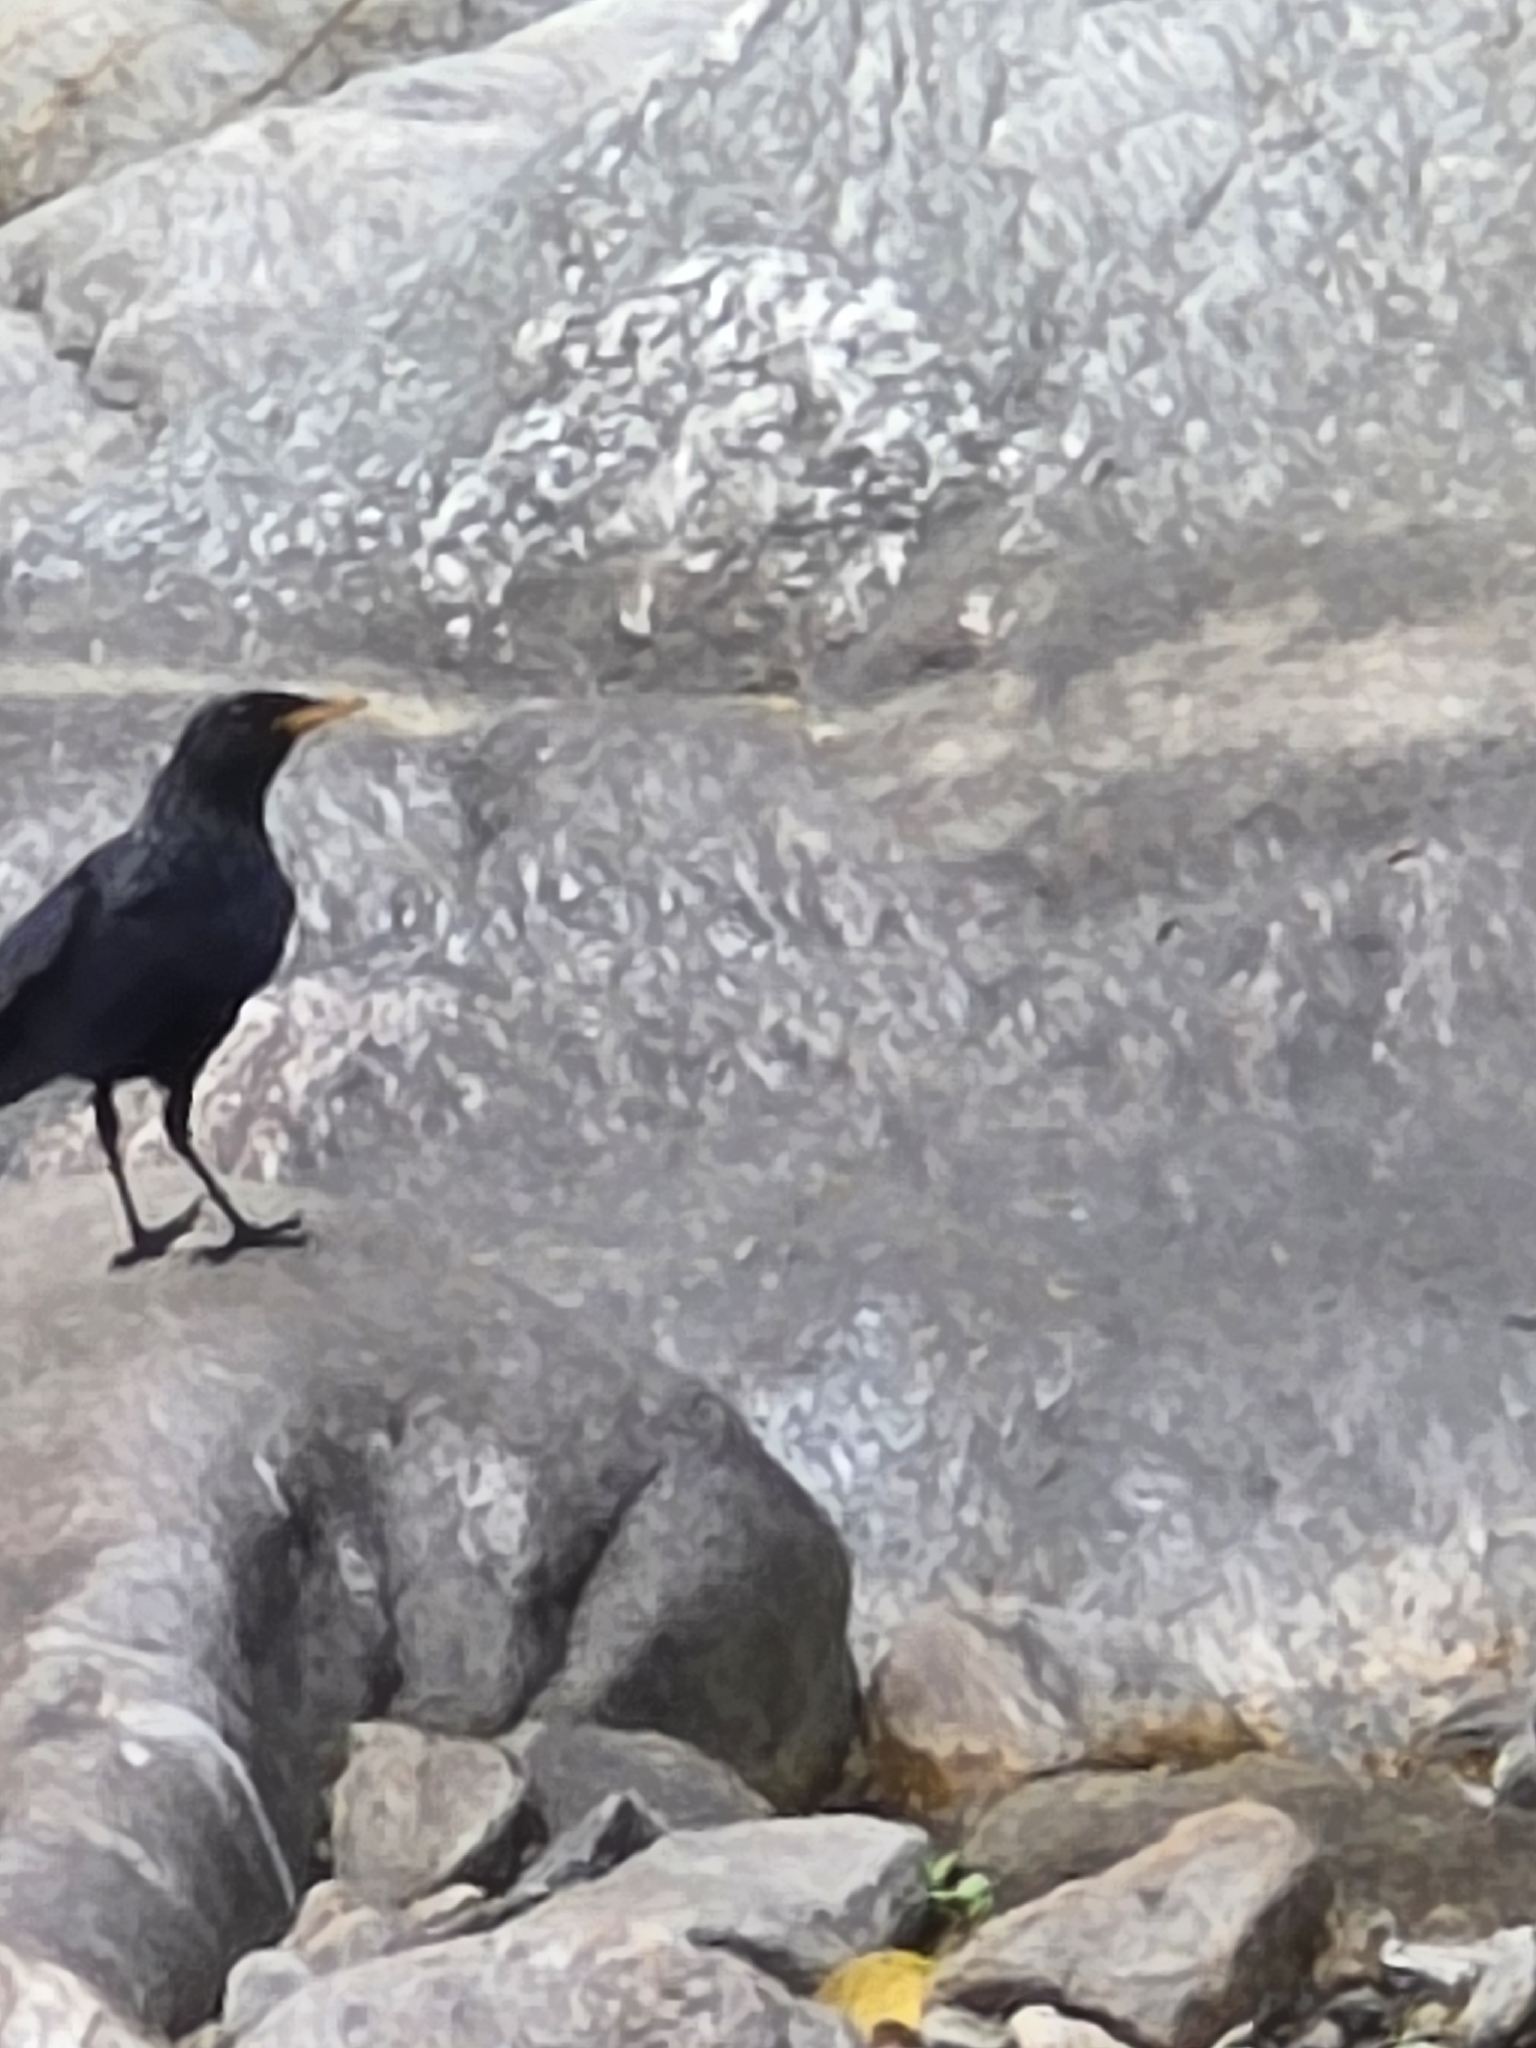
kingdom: Animalia
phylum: Chordata
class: Aves
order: Passeriformes
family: Muscicapidae
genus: Myophonus
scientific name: Myophonus caeruleus
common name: Blue whistling-thrush
